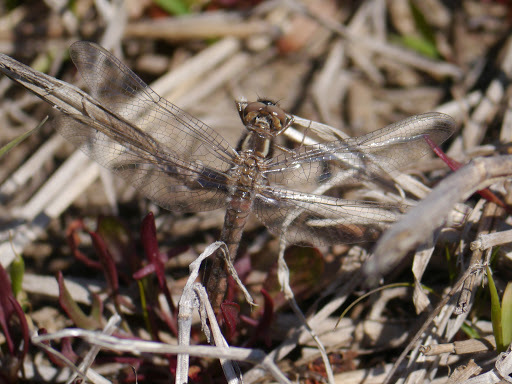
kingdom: Animalia
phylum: Arthropoda
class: Insecta
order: Odonata
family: Libellulidae
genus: Ladona
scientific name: Ladona deplanata
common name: Blue corporal
